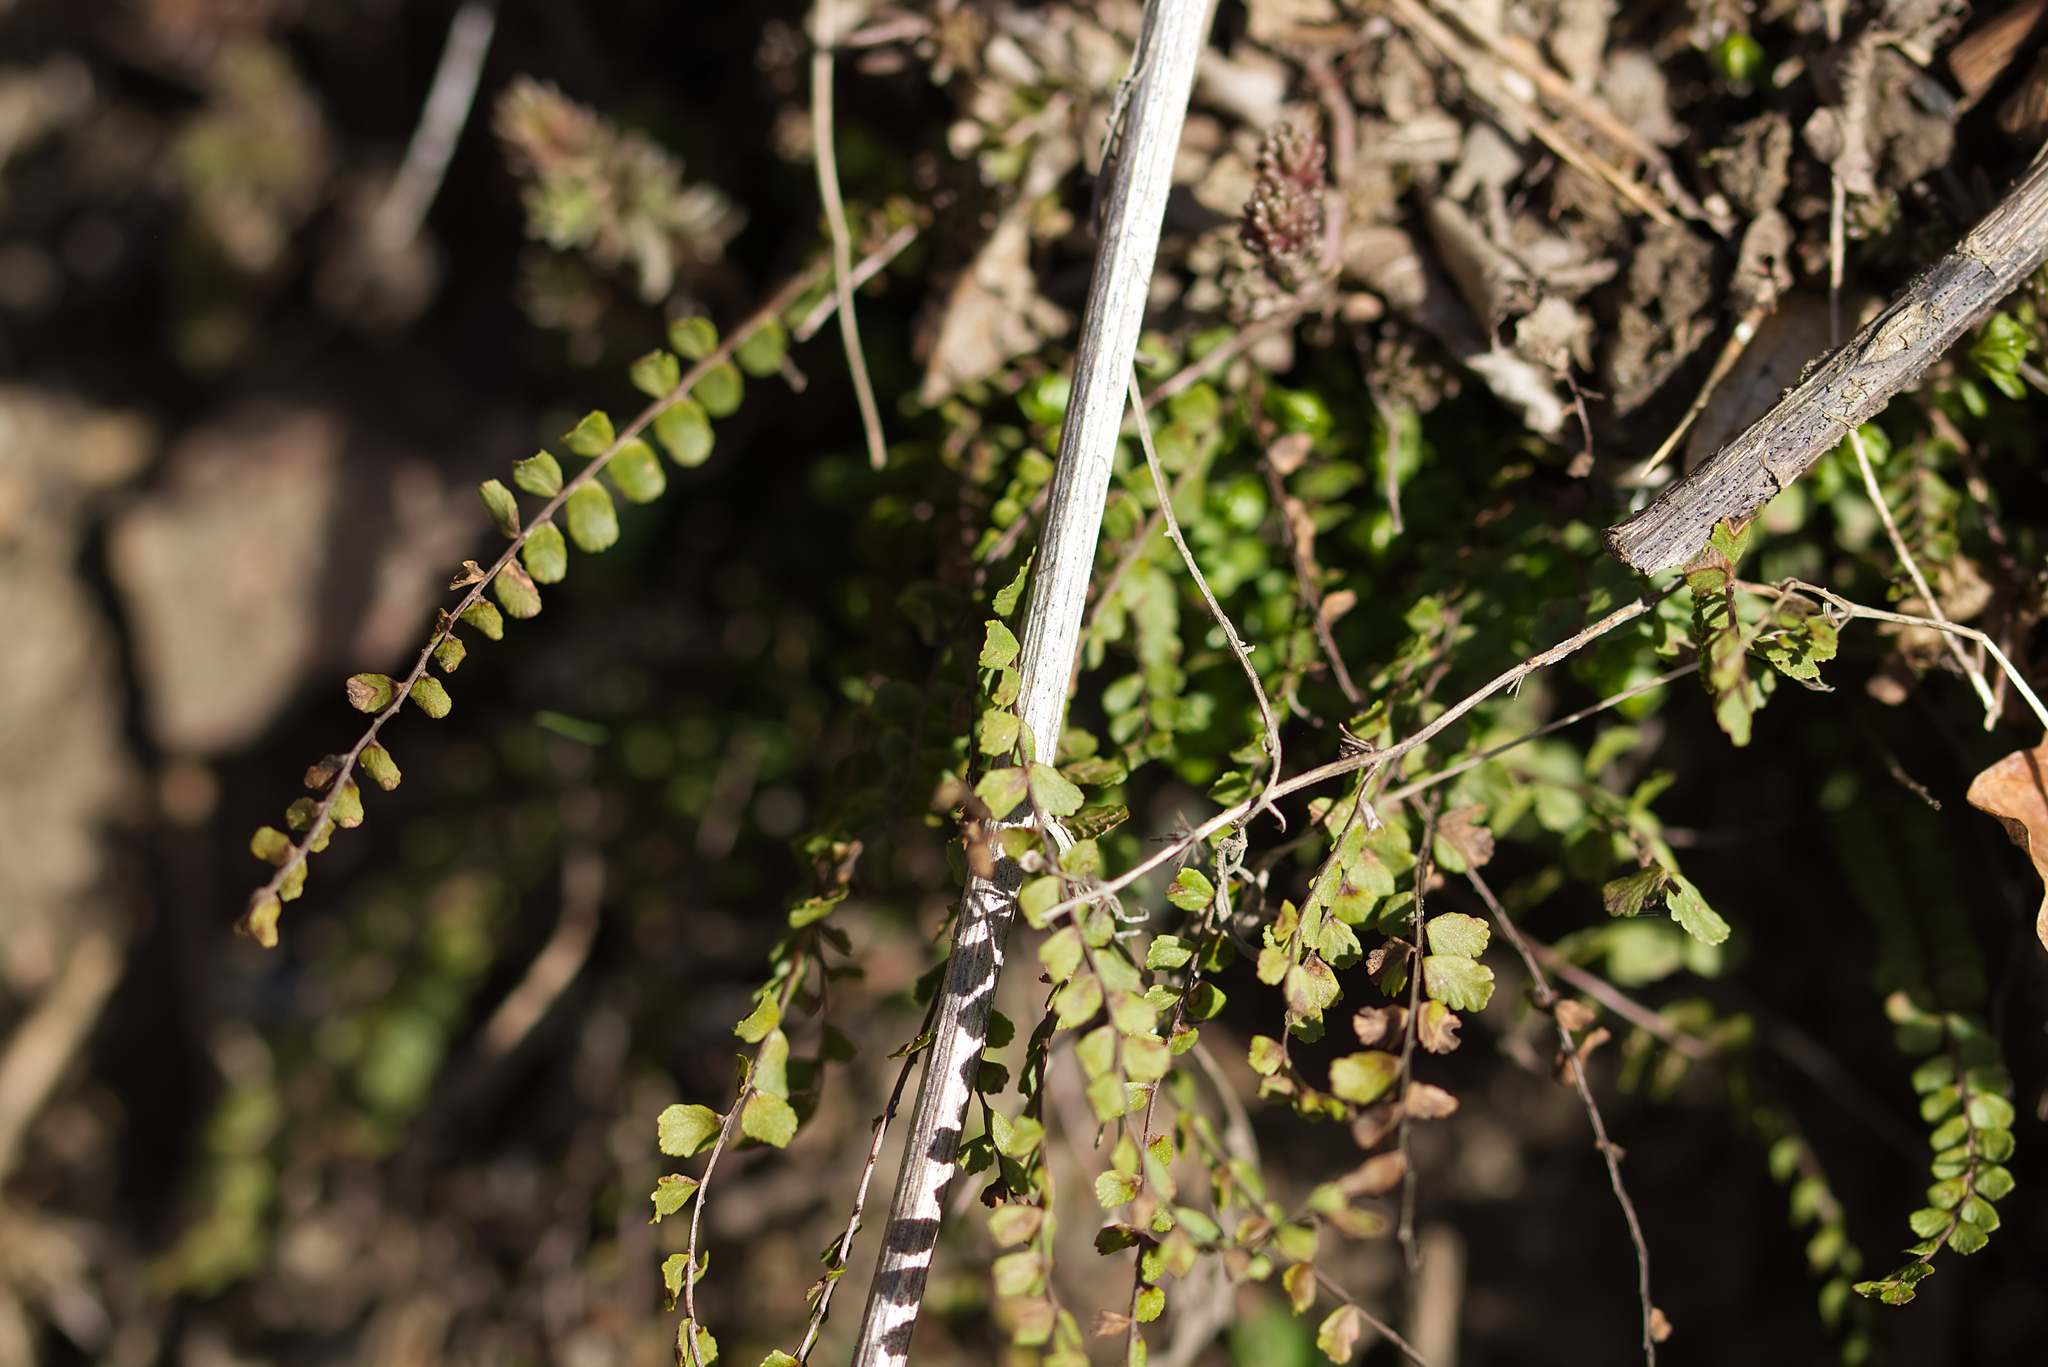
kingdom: Plantae
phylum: Tracheophyta
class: Polypodiopsida
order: Polypodiales
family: Aspleniaceae
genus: Asplenium
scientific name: Asplenium trichomanes
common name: Maidenhair spleenwort
